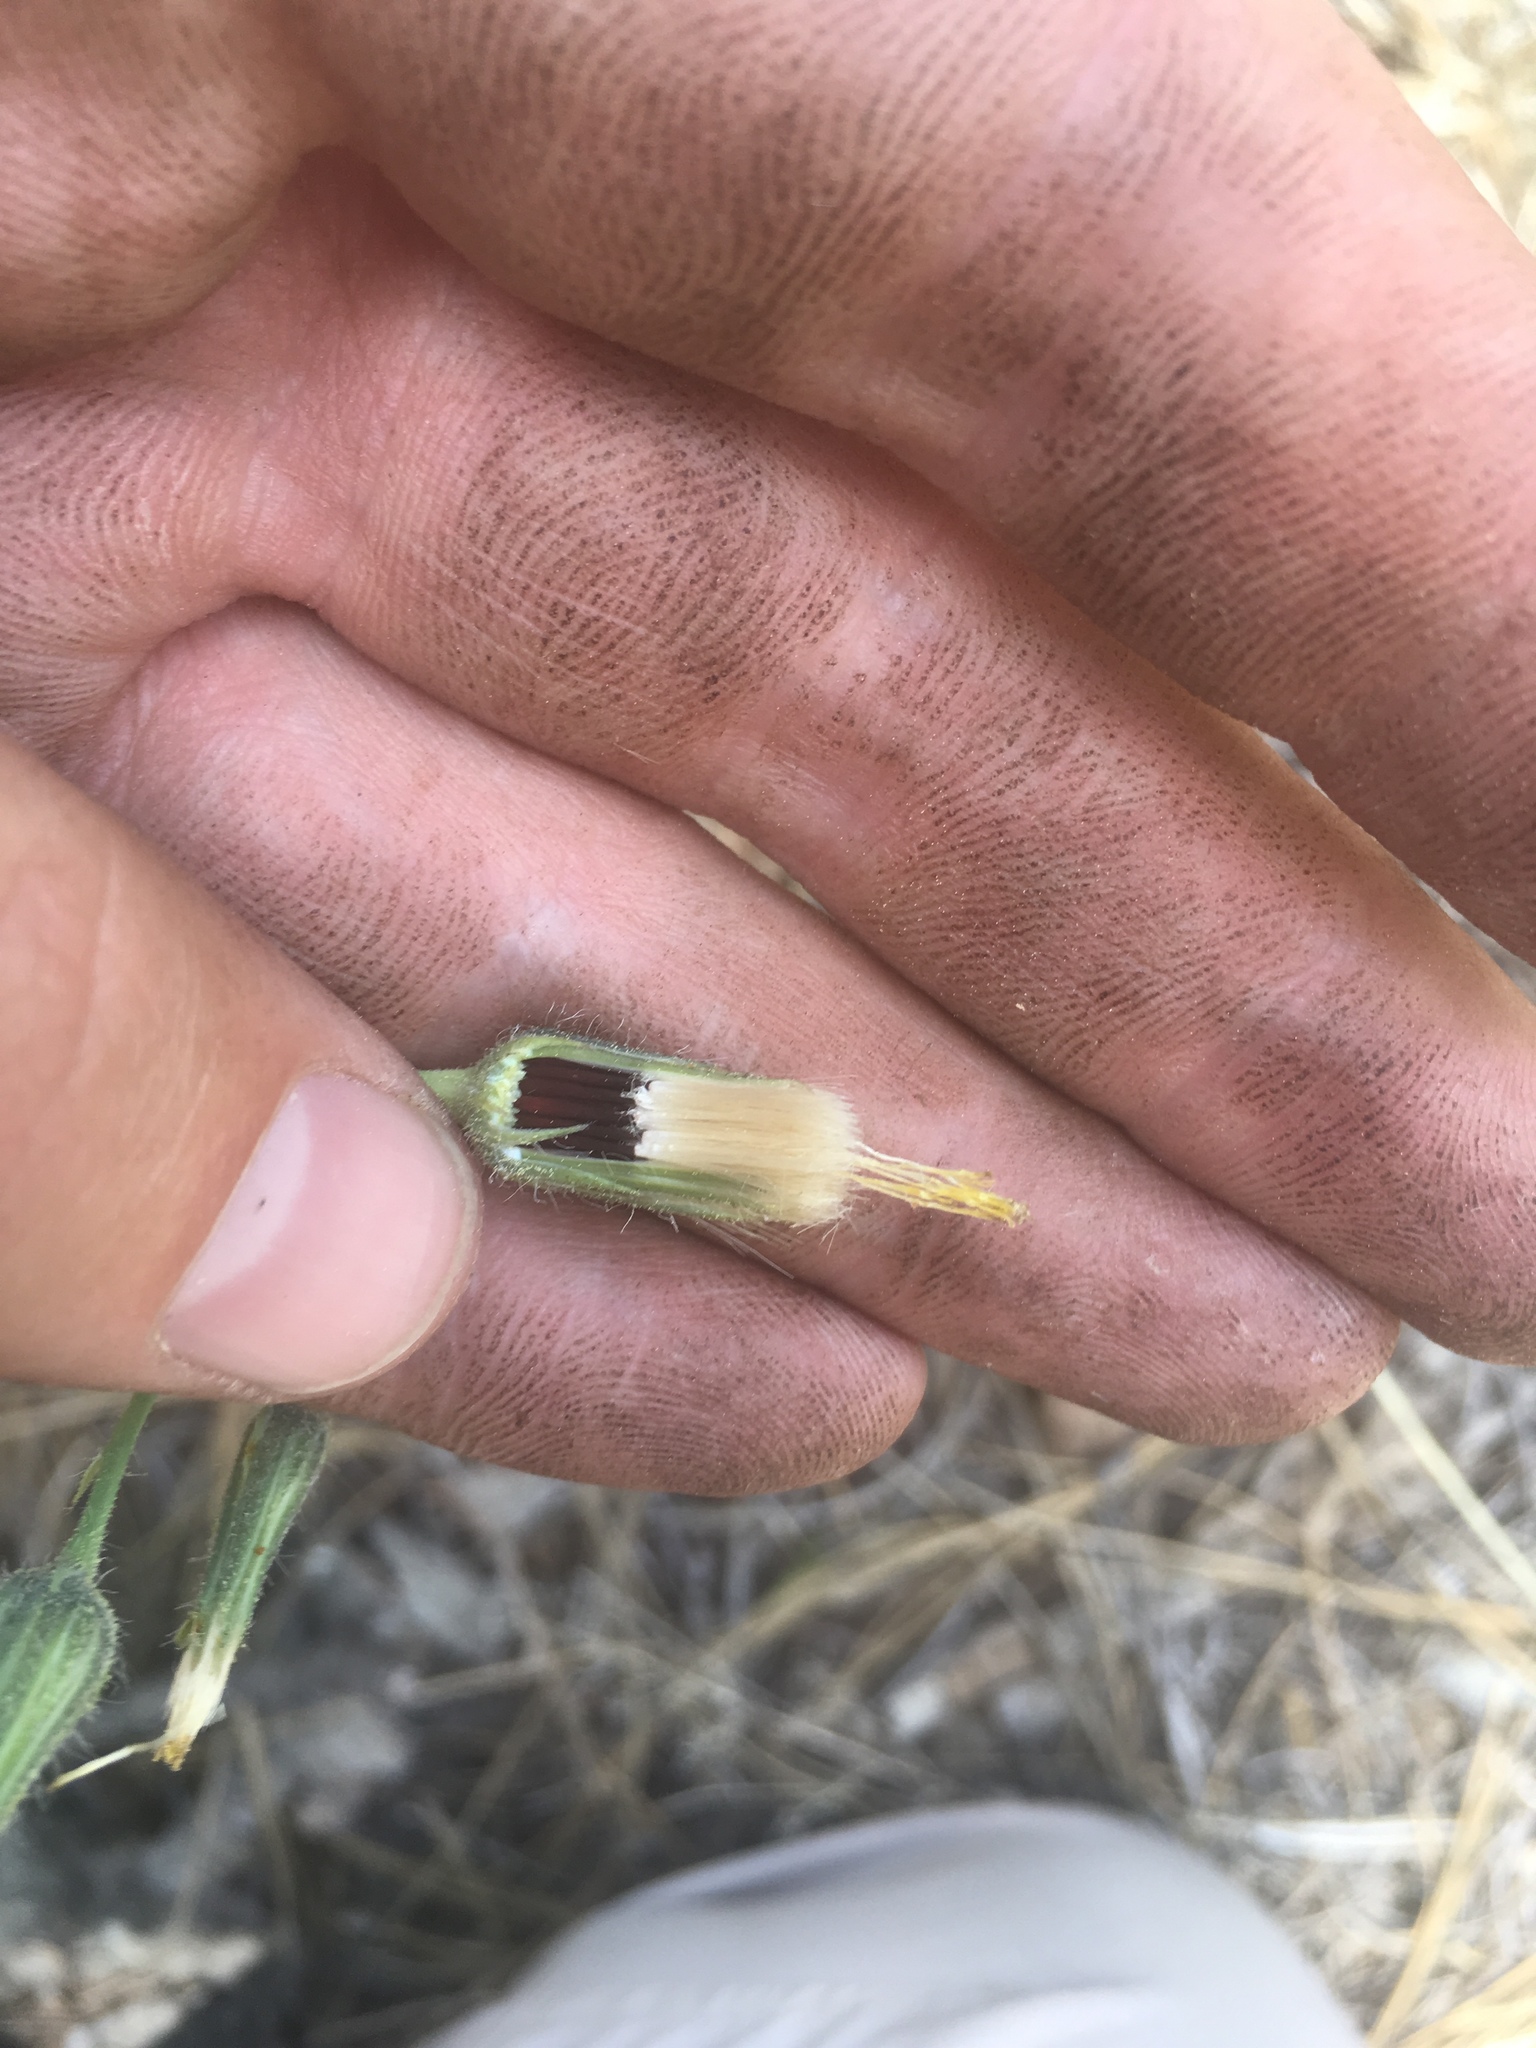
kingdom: Plantae
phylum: Tracheophyta
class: Magnoliopsida
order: Asterales
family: Asteraceae
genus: Hieracium
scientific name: Hieracium fendleri
